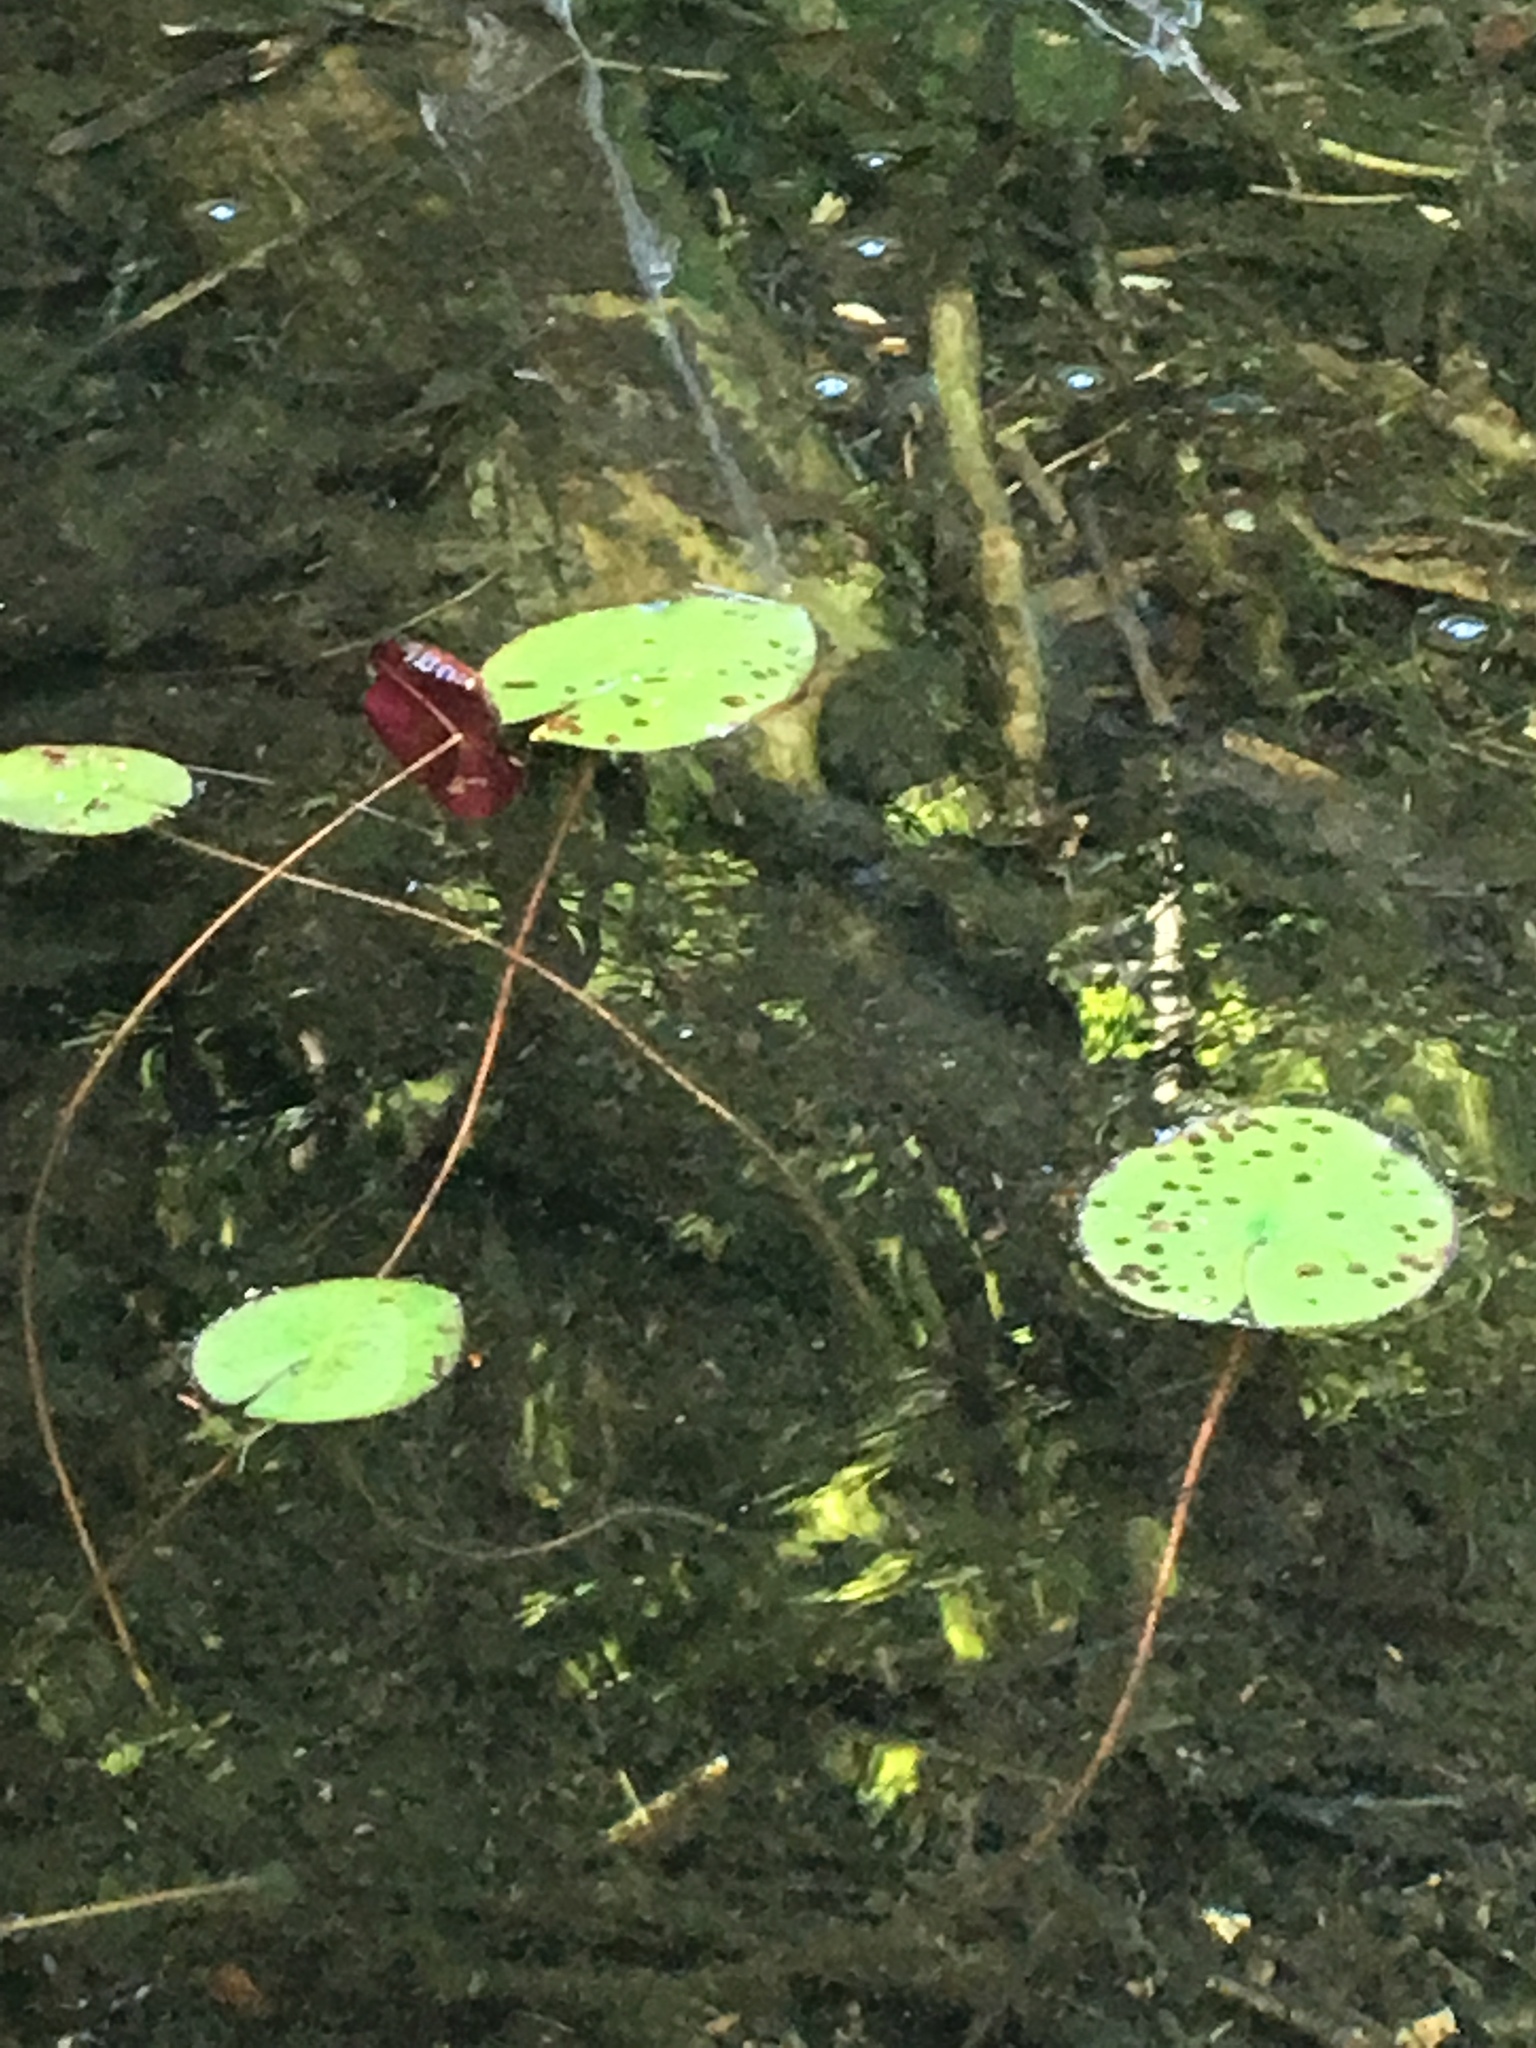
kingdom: Plantae
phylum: Tracheophyta
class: Magnoliopsida
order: Nymphaeales
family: Nymphaeaceae
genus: Nymphaea
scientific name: Nymphaea odorata
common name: Fragrant water-lily
